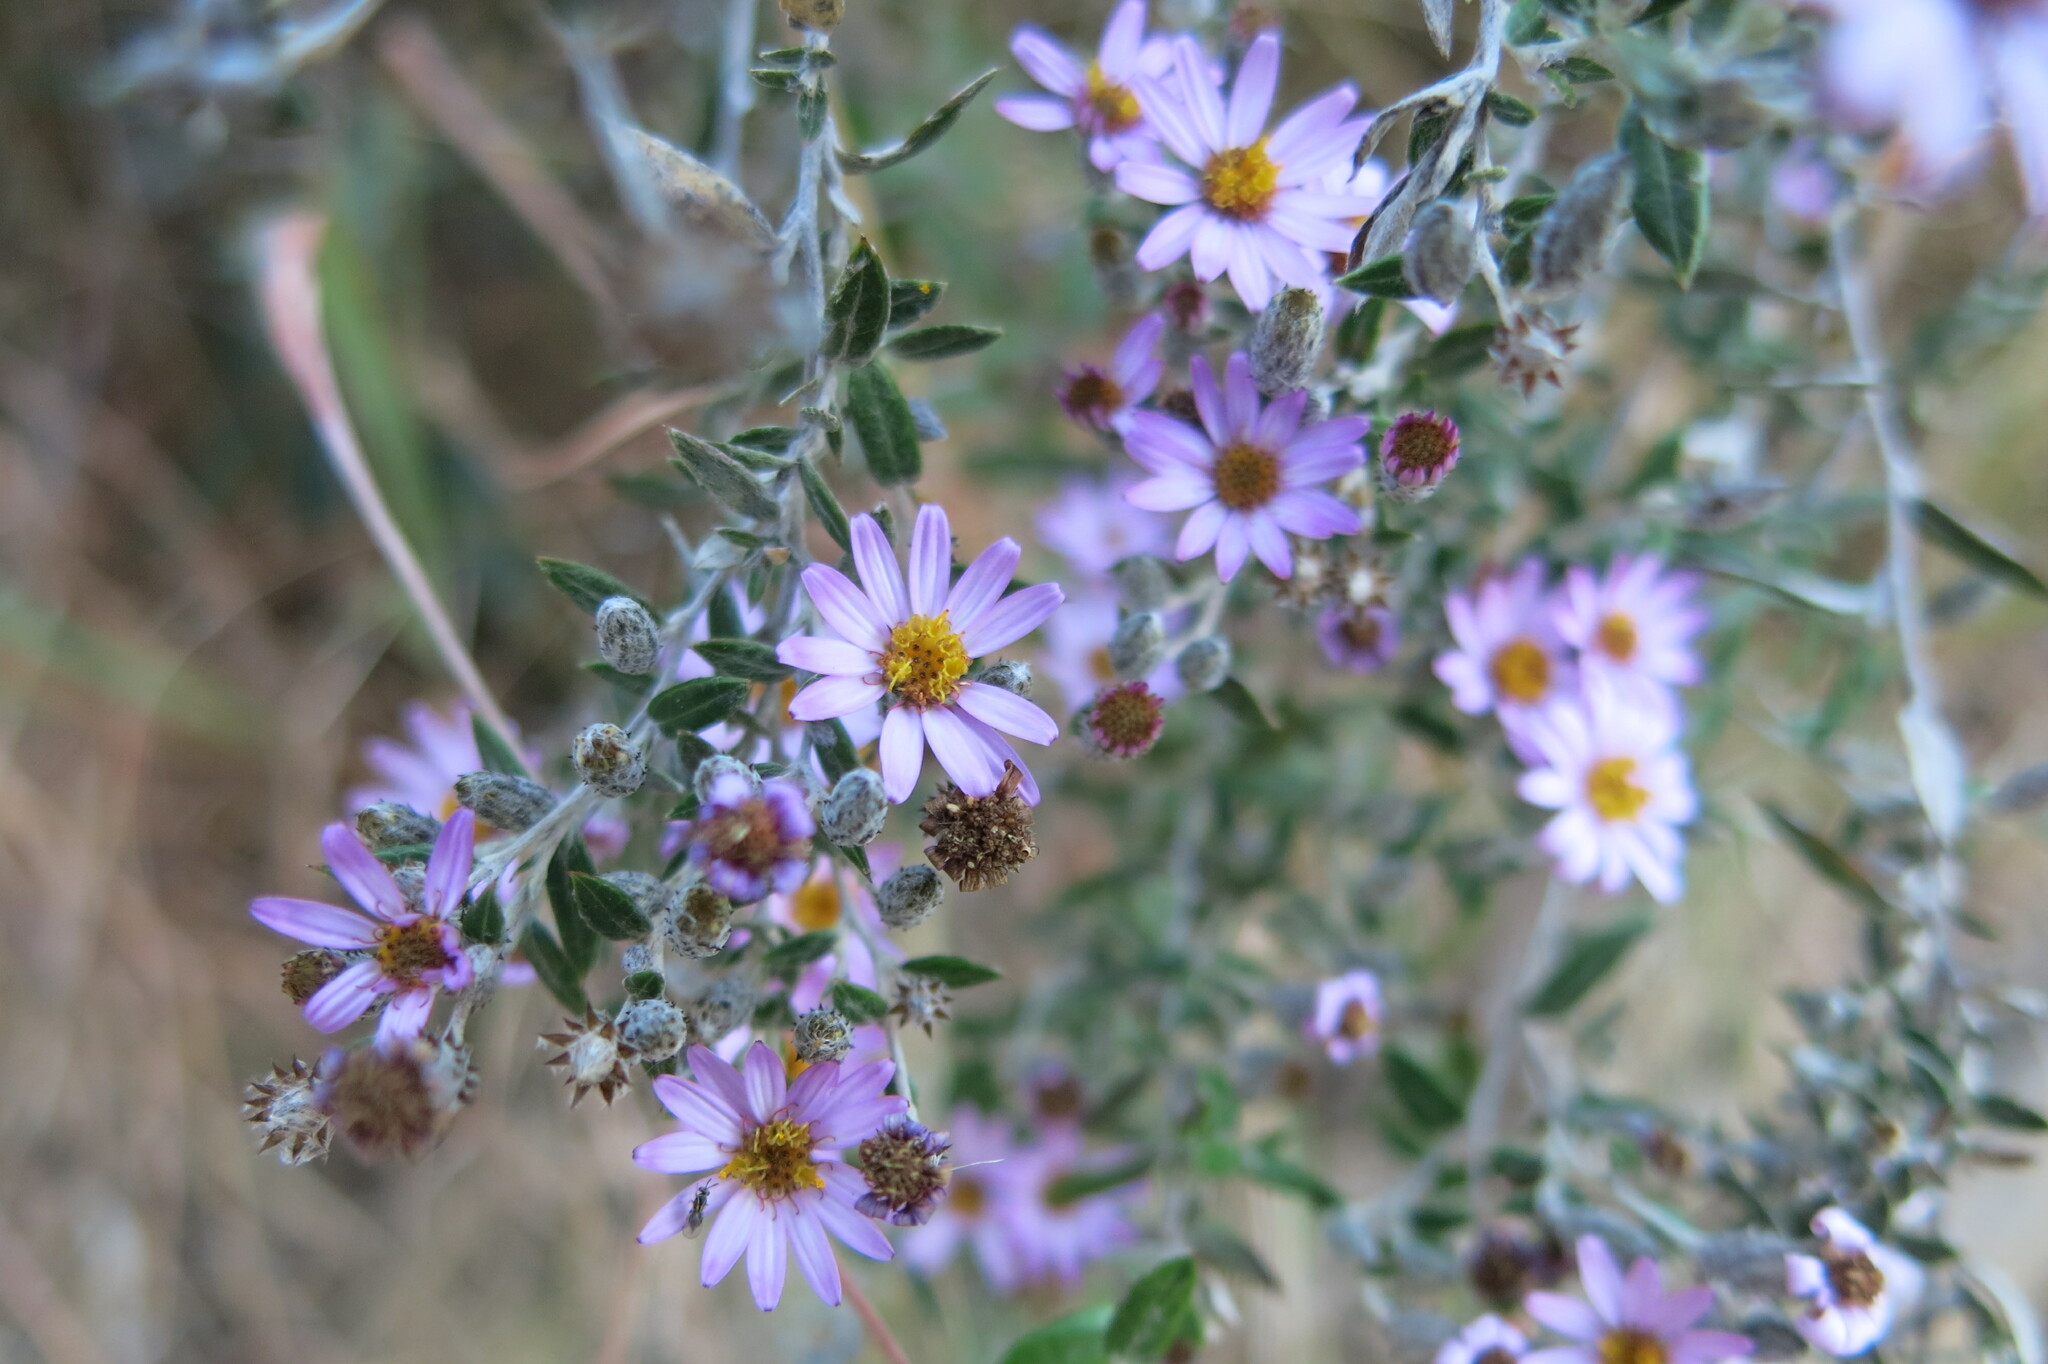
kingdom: Plantae
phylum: Tracheophyta
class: Magnoliopsida
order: Asterales
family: Asteraceae
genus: Athrixia
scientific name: Athrixia phylicoides
